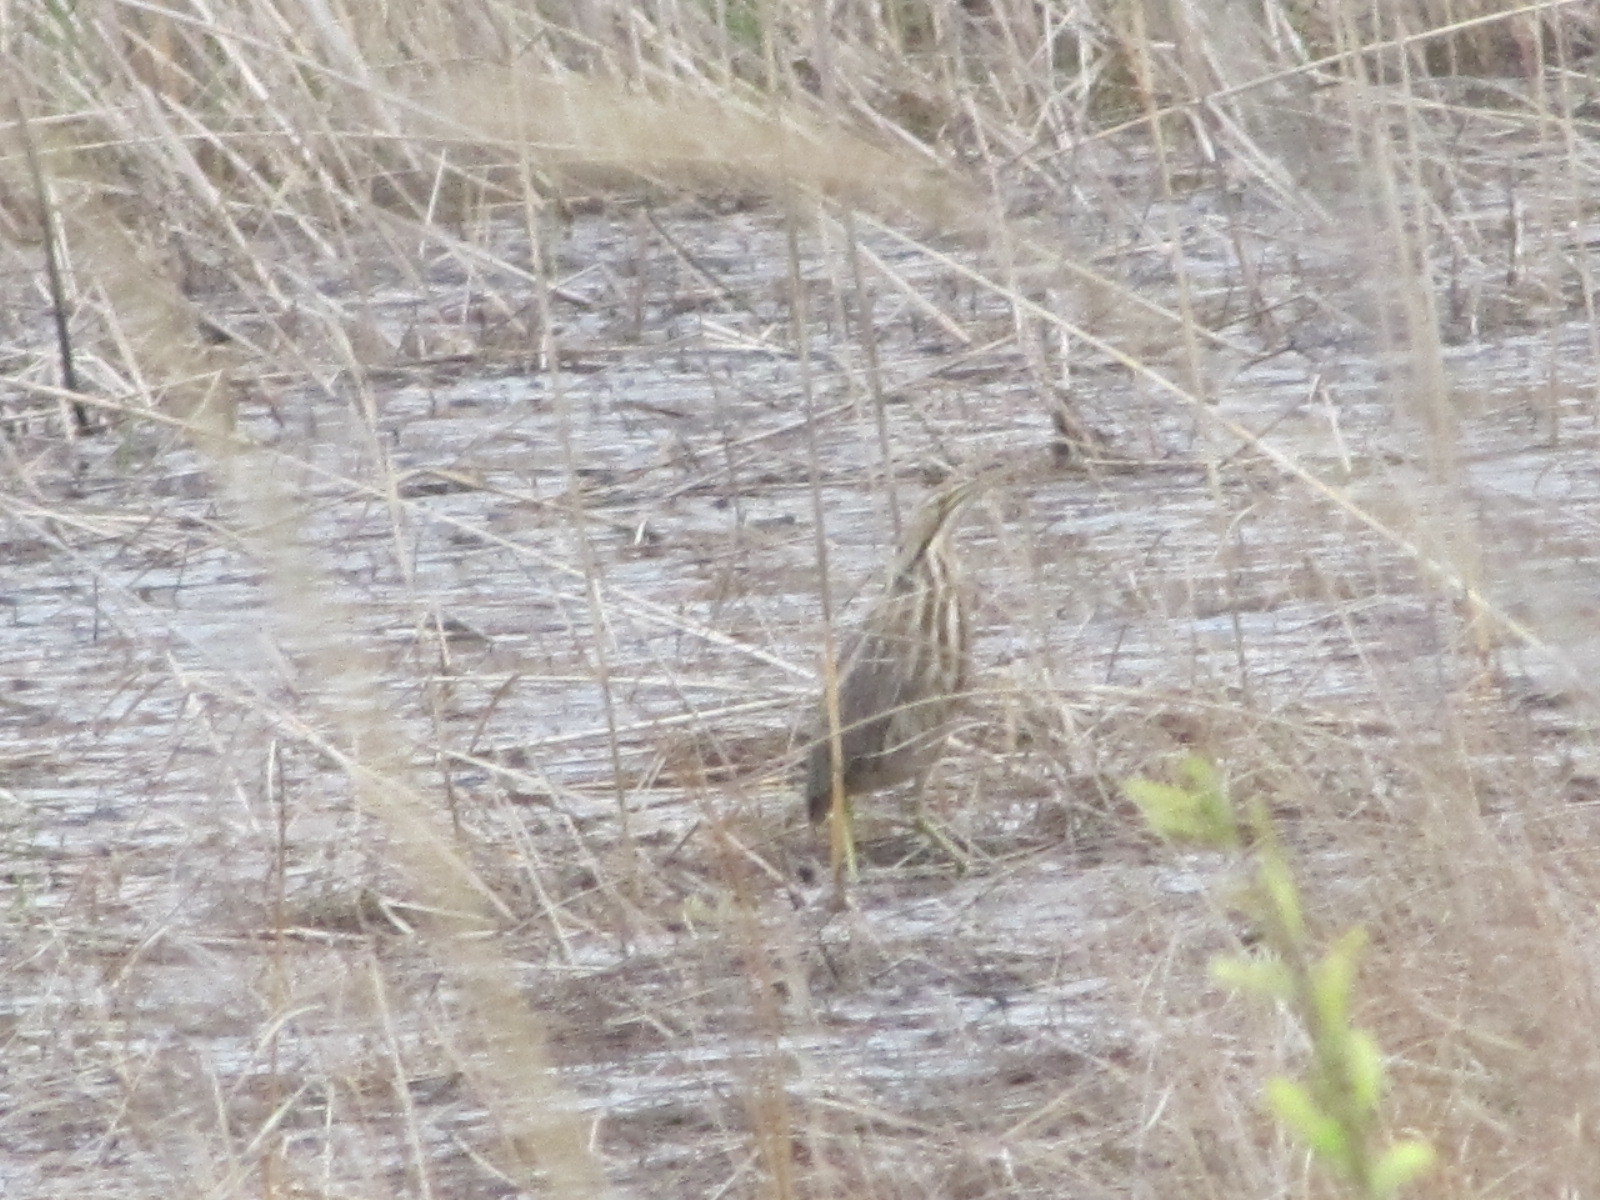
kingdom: Animalia
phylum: Chordata
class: Aves
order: Pelecaniformes
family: Ardeidae
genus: Botaurus
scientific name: Botaurus lentiginosus
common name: American bittern
